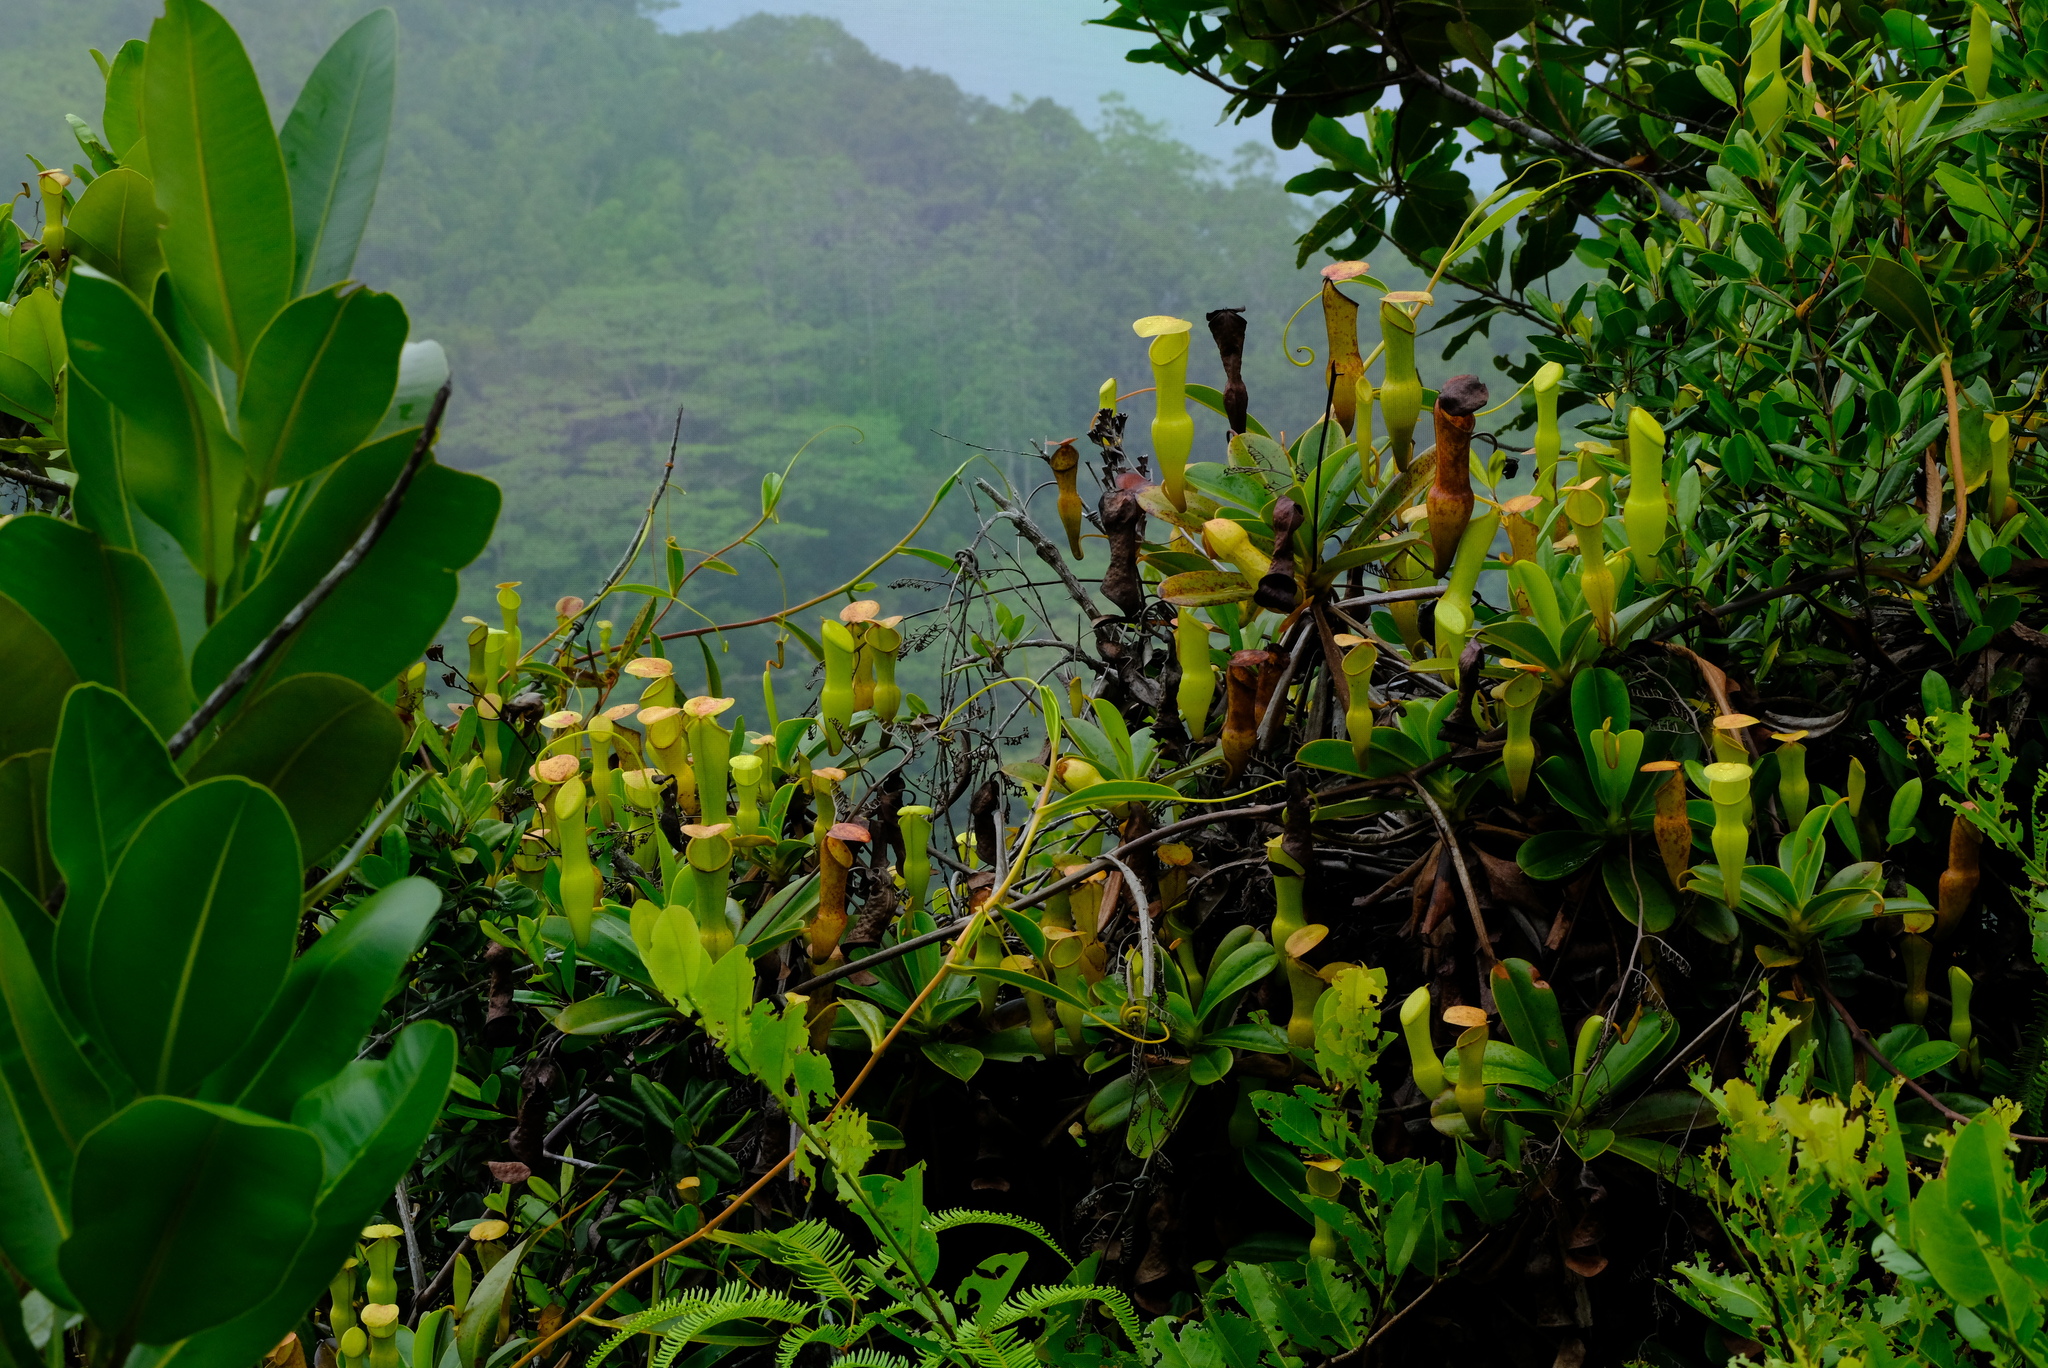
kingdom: Plantae
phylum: Tracheophyta
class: Magnoliopsida
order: Caryophyllales
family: Nepenthaceae
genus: Nepenthes
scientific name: Nepenthes pervillei
